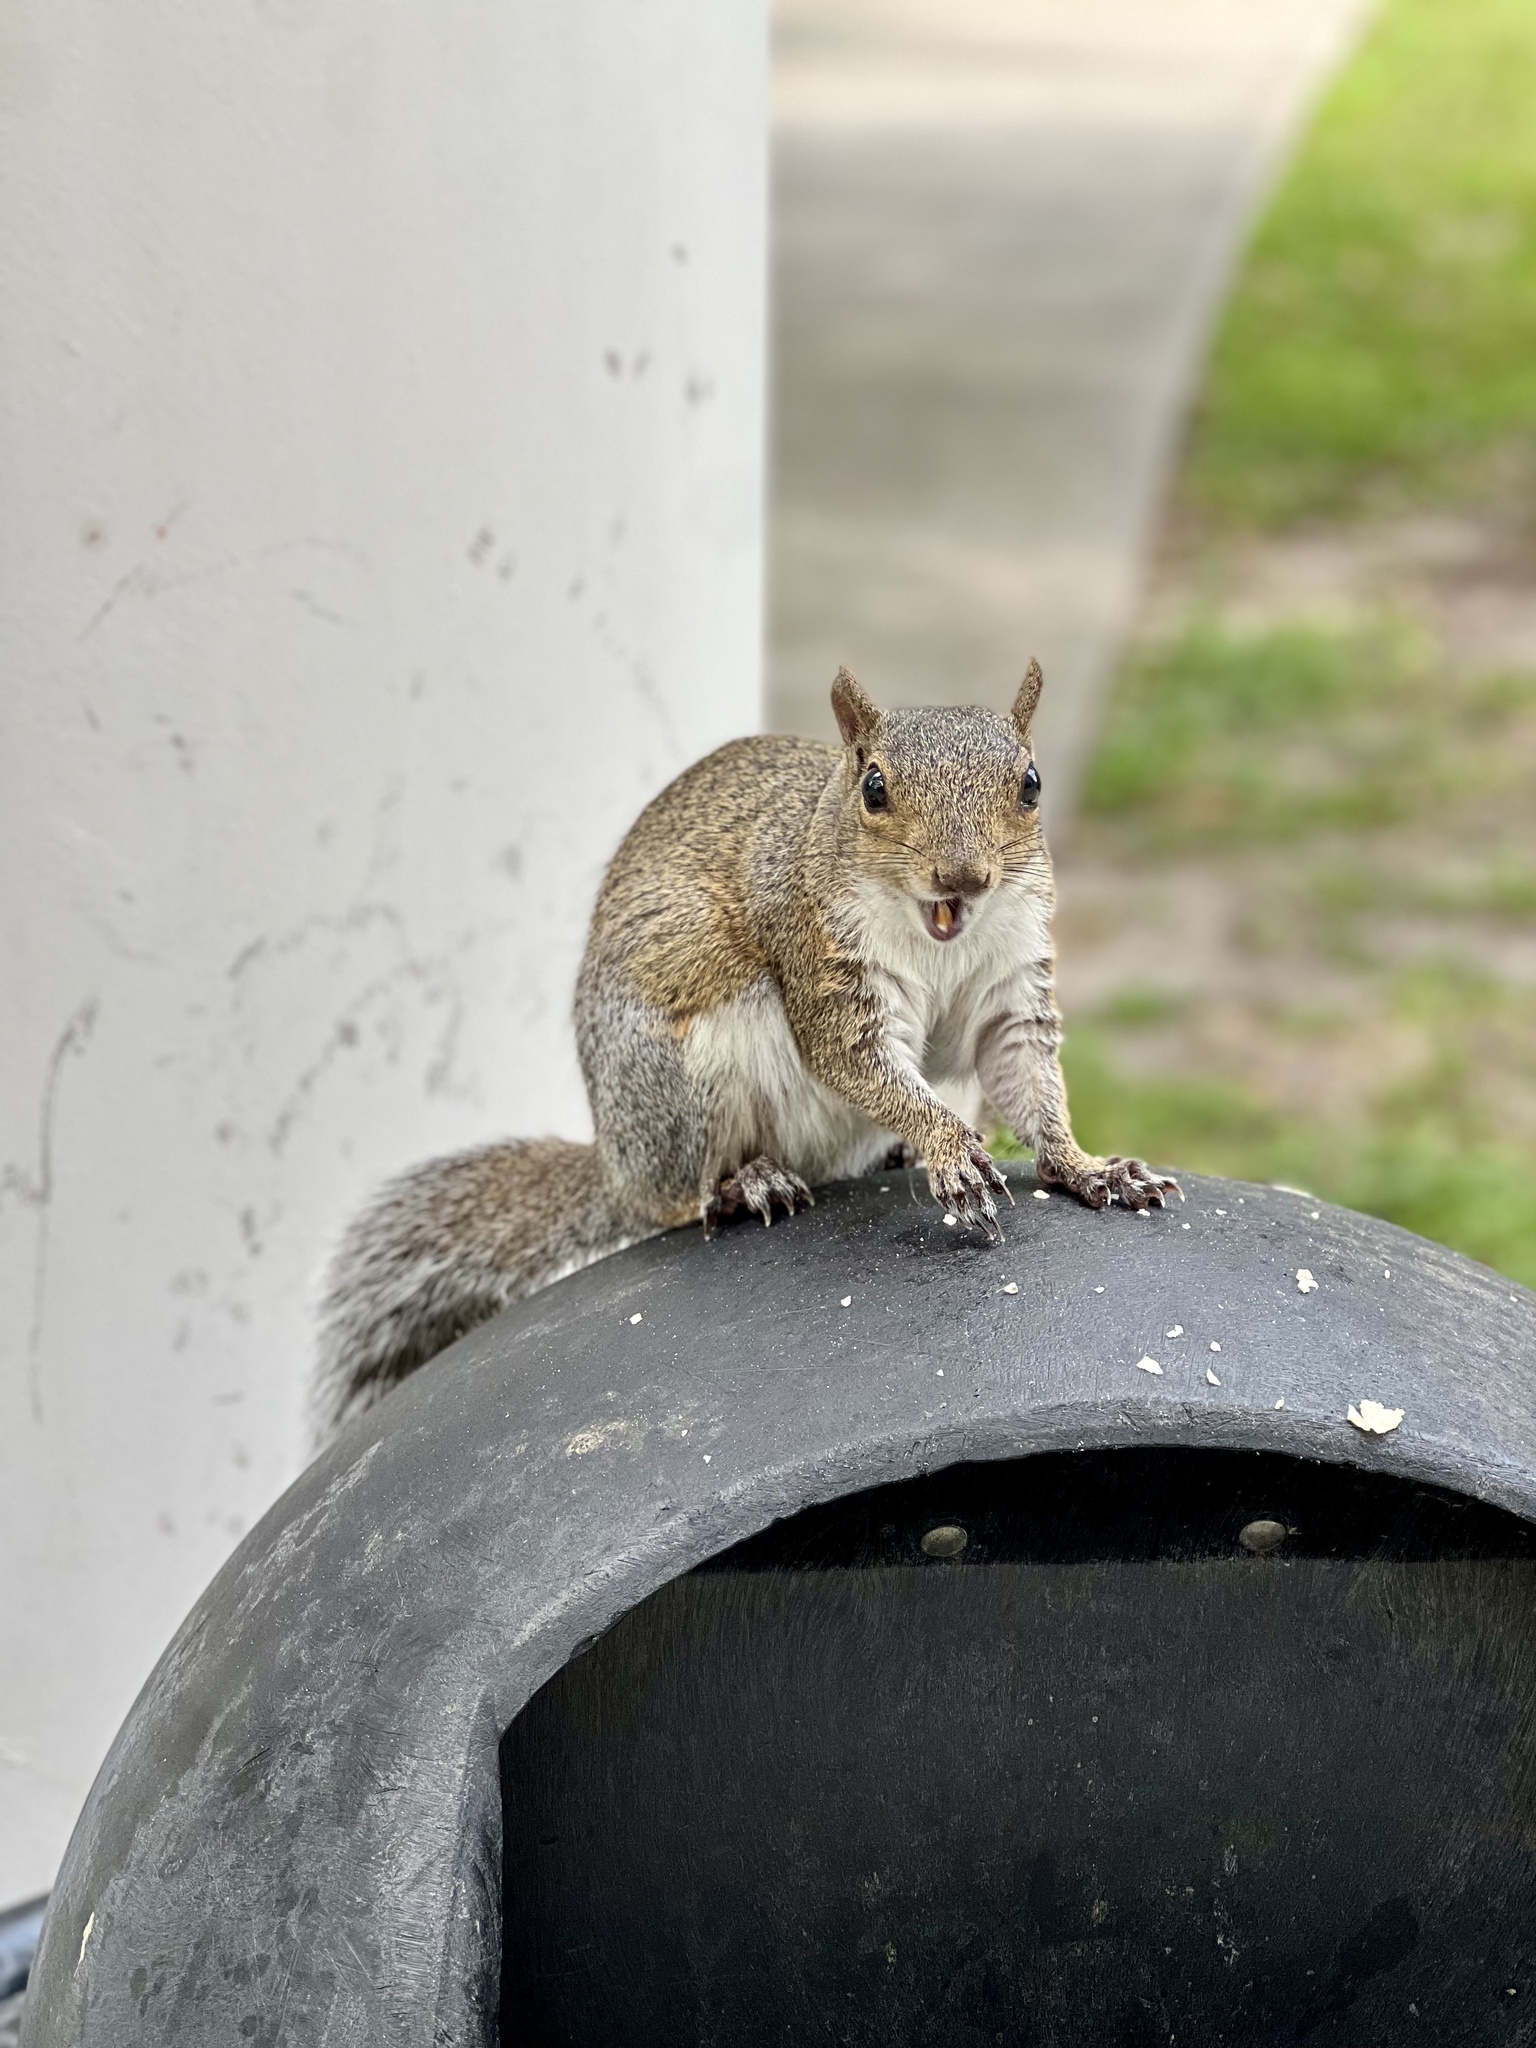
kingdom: Animalia
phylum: Chordata
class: Mammalia
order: Rodentia
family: Sciuridae
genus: Sciurus
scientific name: Sciurus carolinensis
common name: Eastern gray squirrel
